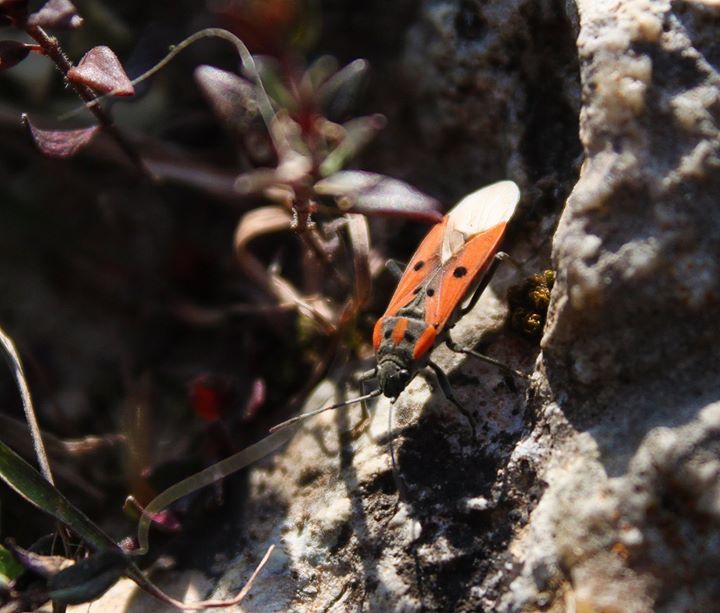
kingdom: Animalia
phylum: Arthropoda
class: Insecta
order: Hemiptera
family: Lygaeidae
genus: Lygaeus
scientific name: Lygaeus creticus
